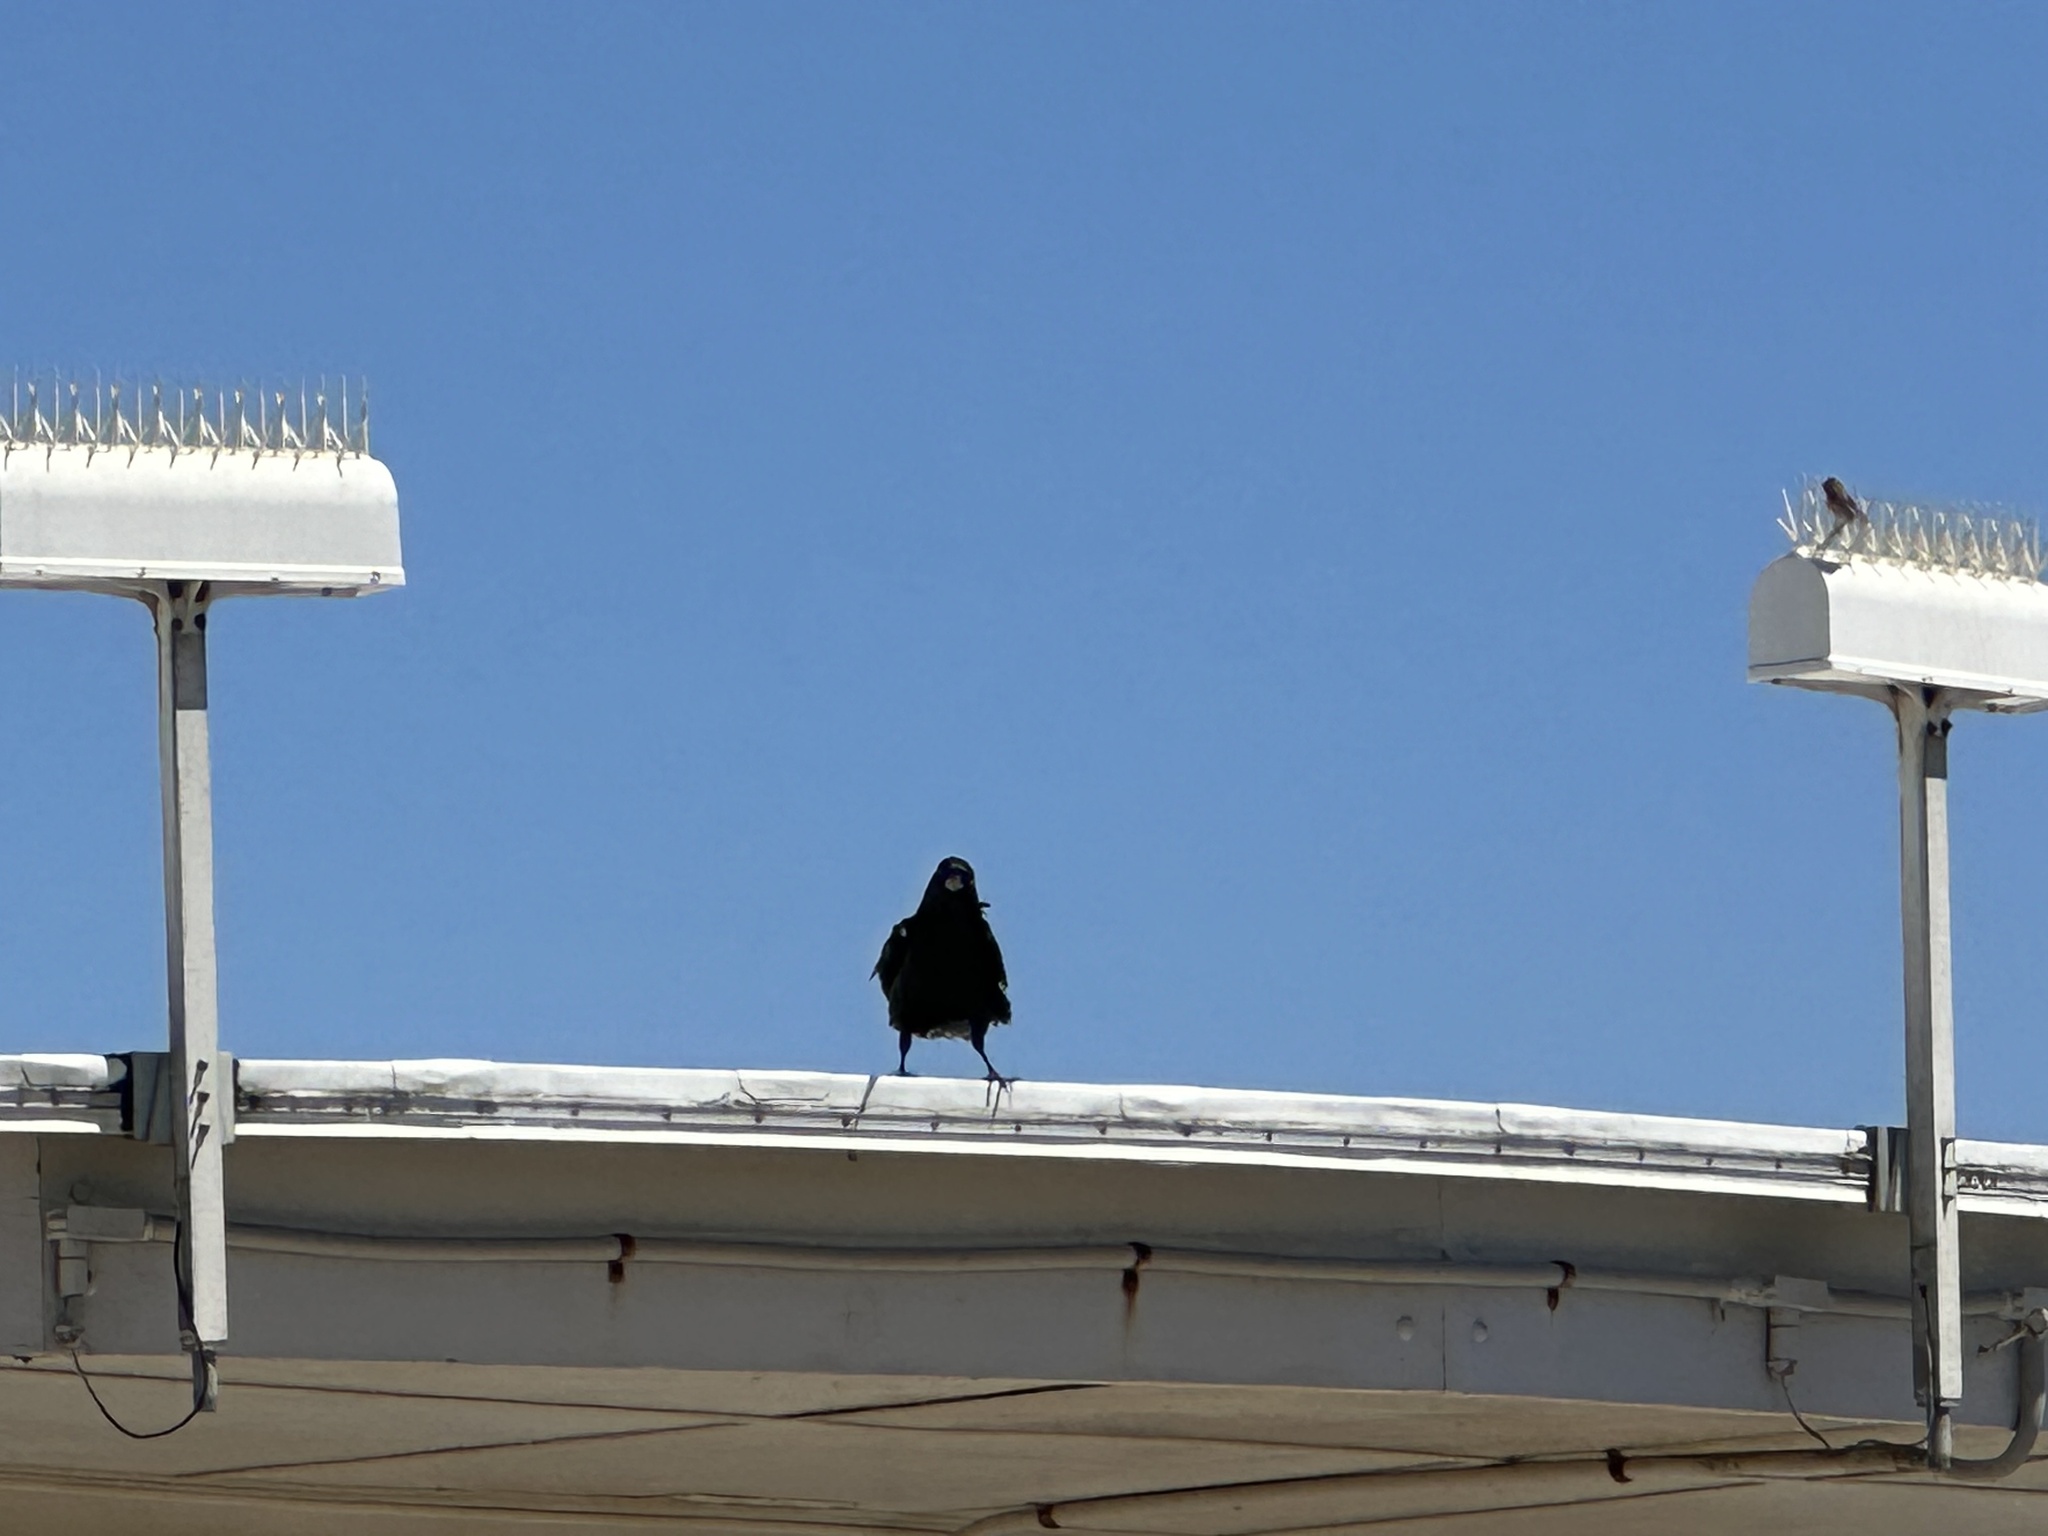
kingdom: Animalia
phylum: Chordata
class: Aves
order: Passeriformes
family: Corvidae
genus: Corvus
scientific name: Corvus corax
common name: Common raven
